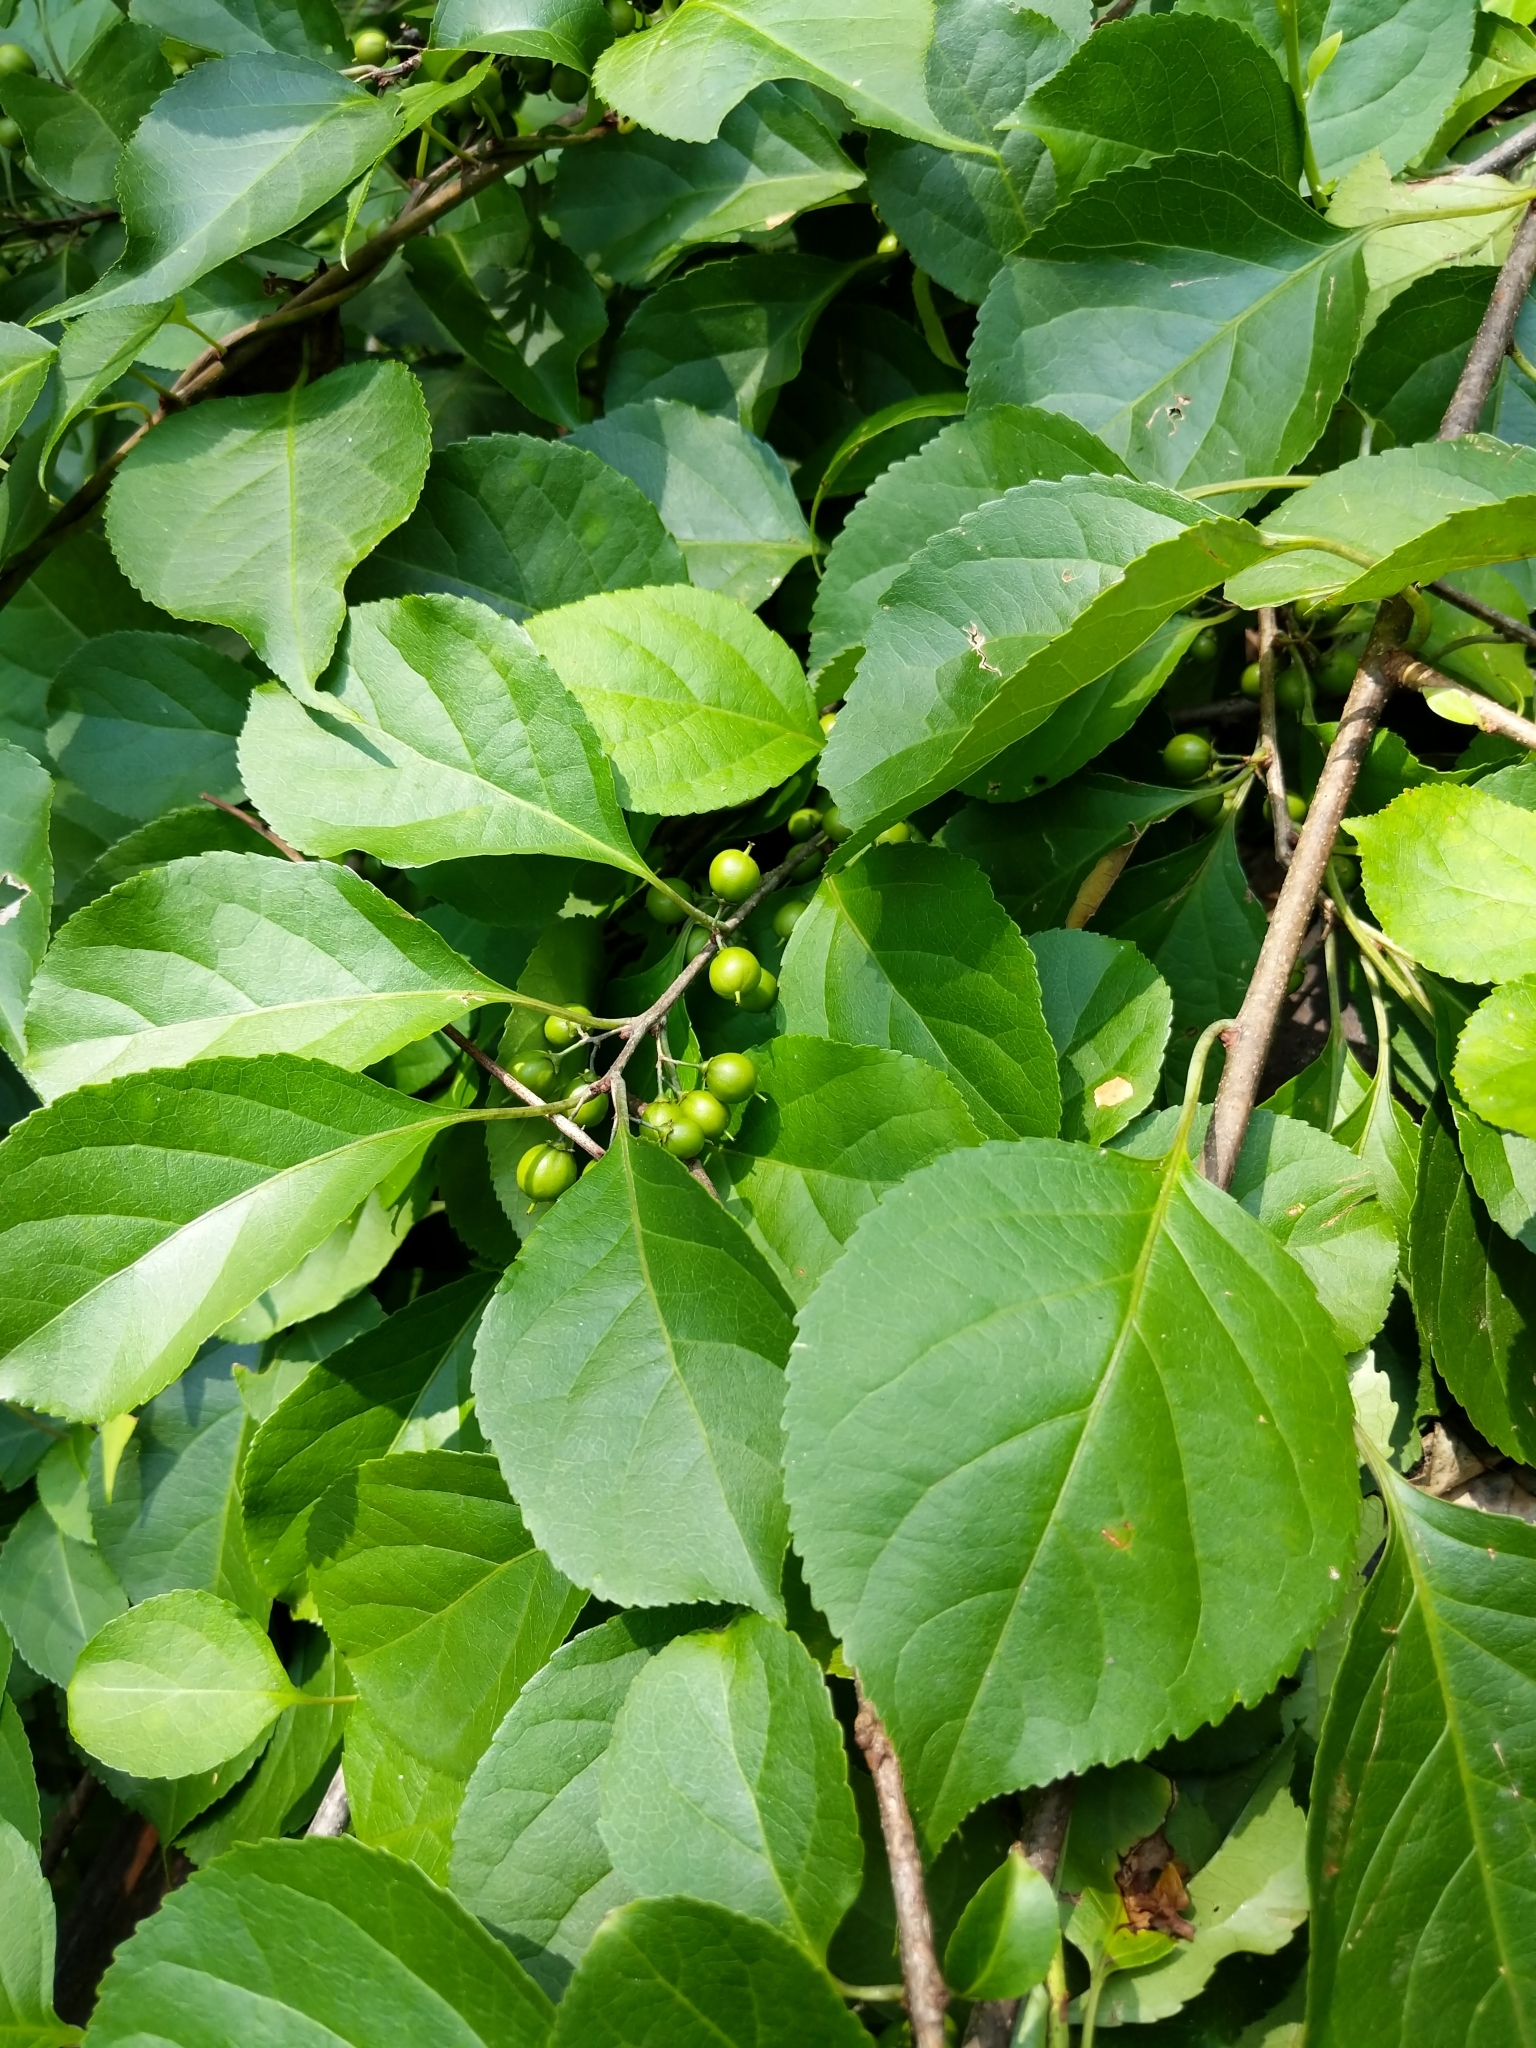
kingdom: Plantae
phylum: Tracheophyta
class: Magnoliopsida
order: Celastrales
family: Celastraceae
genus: Celastrus
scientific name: Celastrus orbiculatus
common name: Oriental bittersweet
